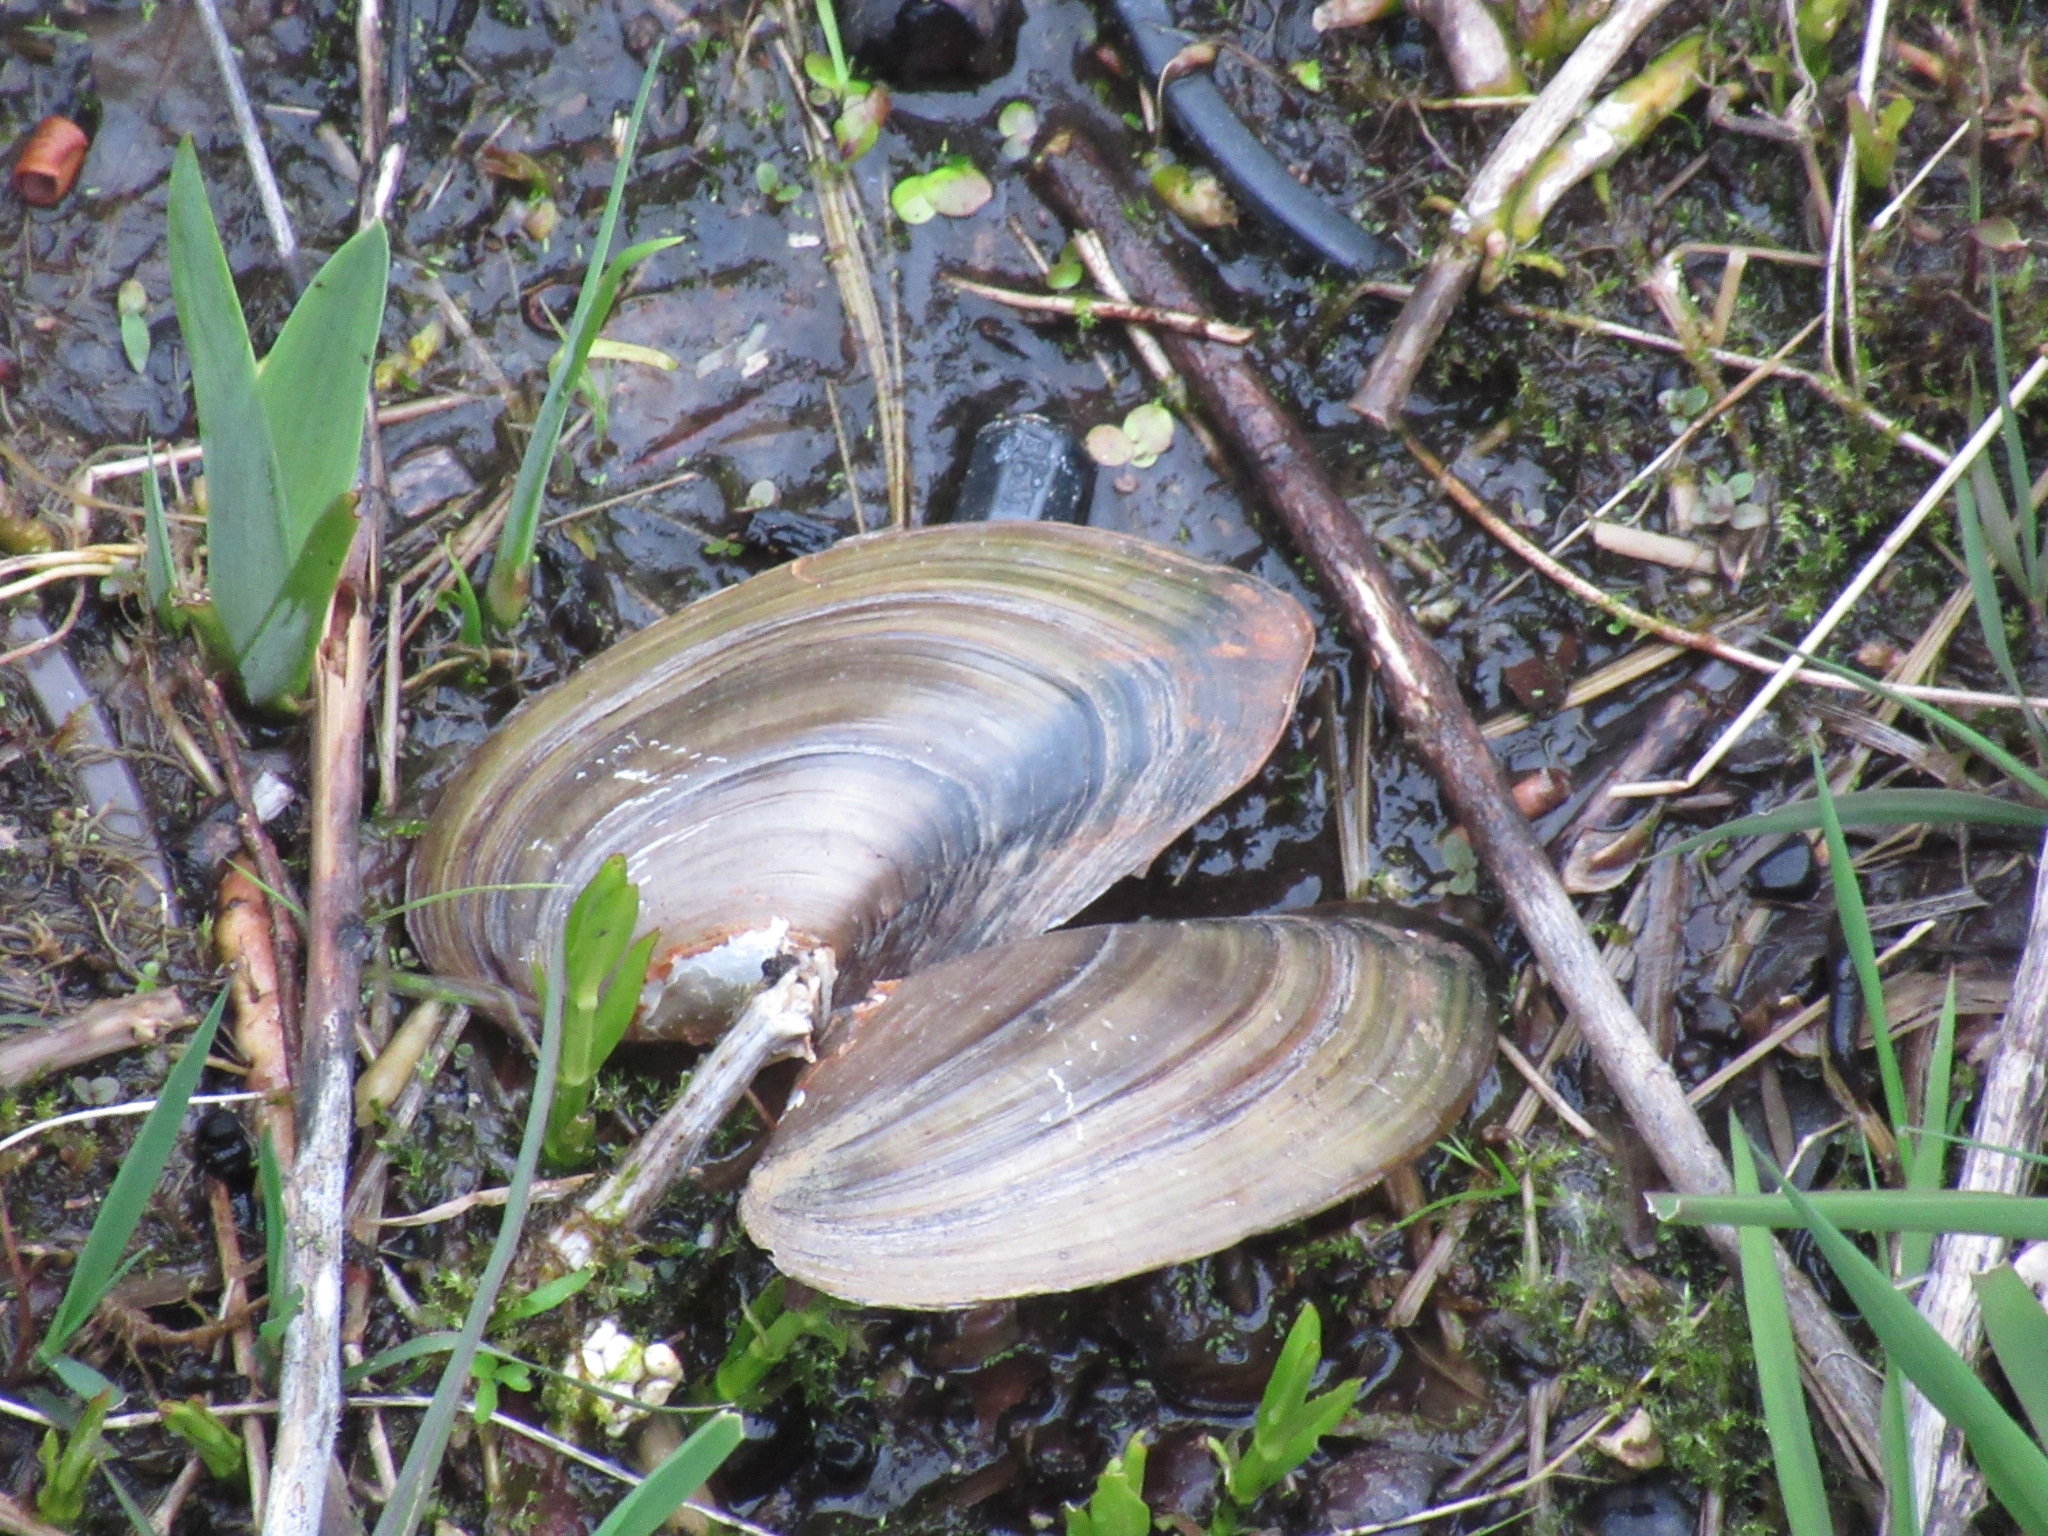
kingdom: Animalia
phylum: Mollusca
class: Bivalvia
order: Unionida
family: Unionidae
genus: Pyganodon
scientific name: Pyganodon cataracta
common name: Eastern floater
